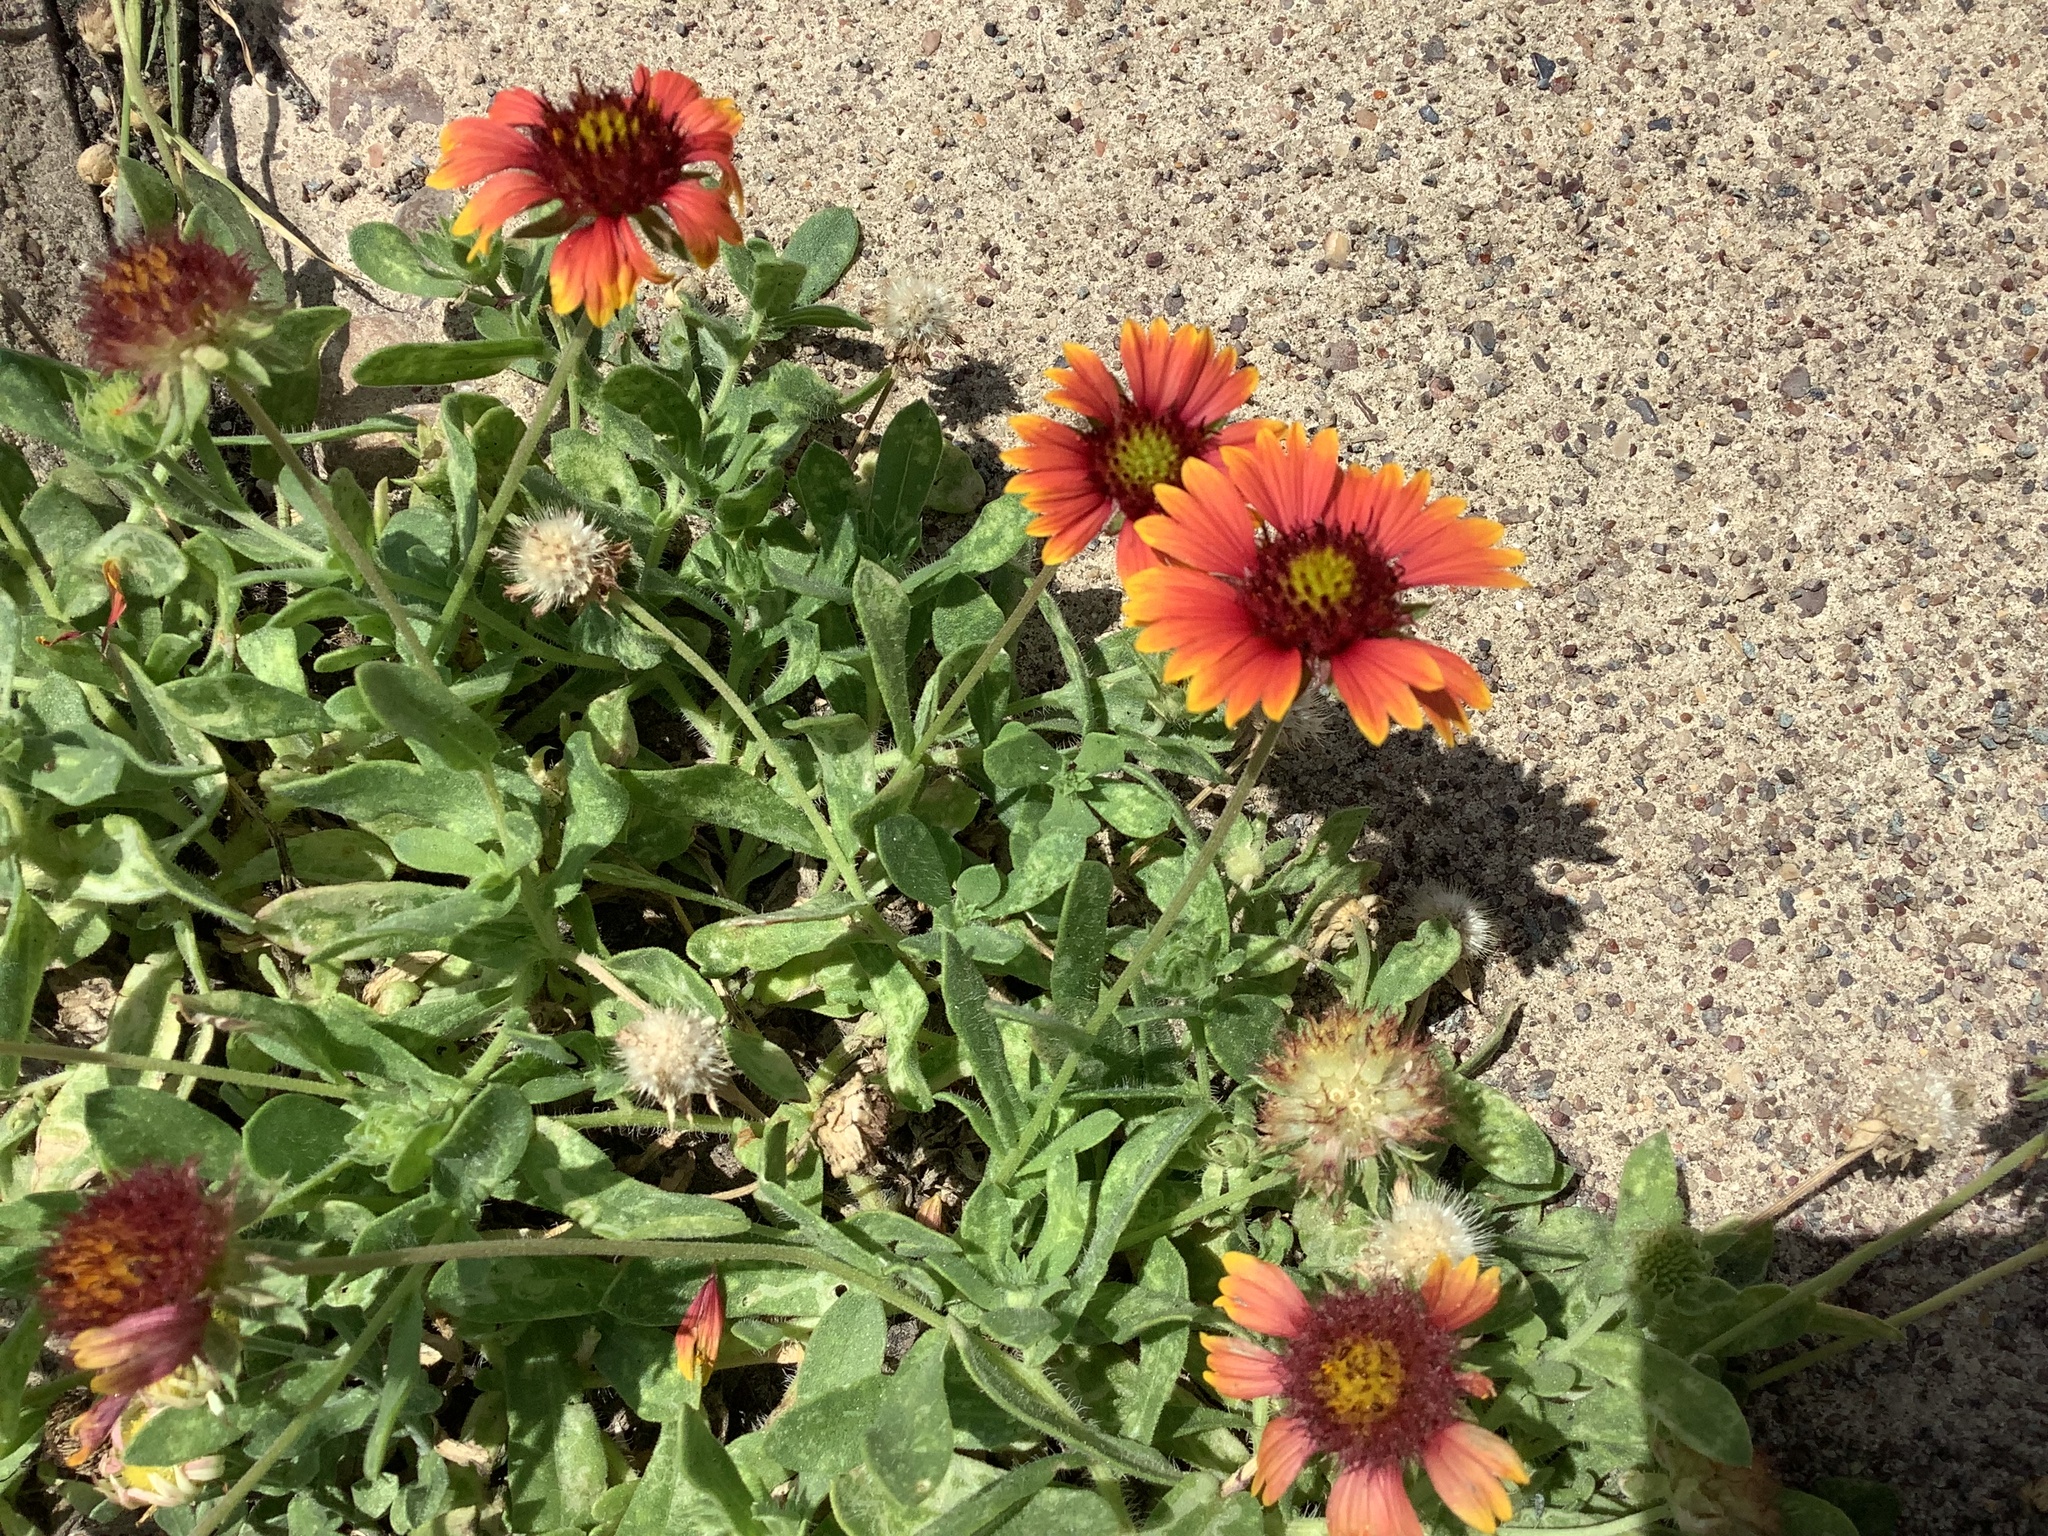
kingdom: Plantae
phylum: Tracheophyta
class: Magnoliopsida
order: Asterales
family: Asteraceae
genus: Gaillardia
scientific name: Gaillardia pulchella
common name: Firewheel
